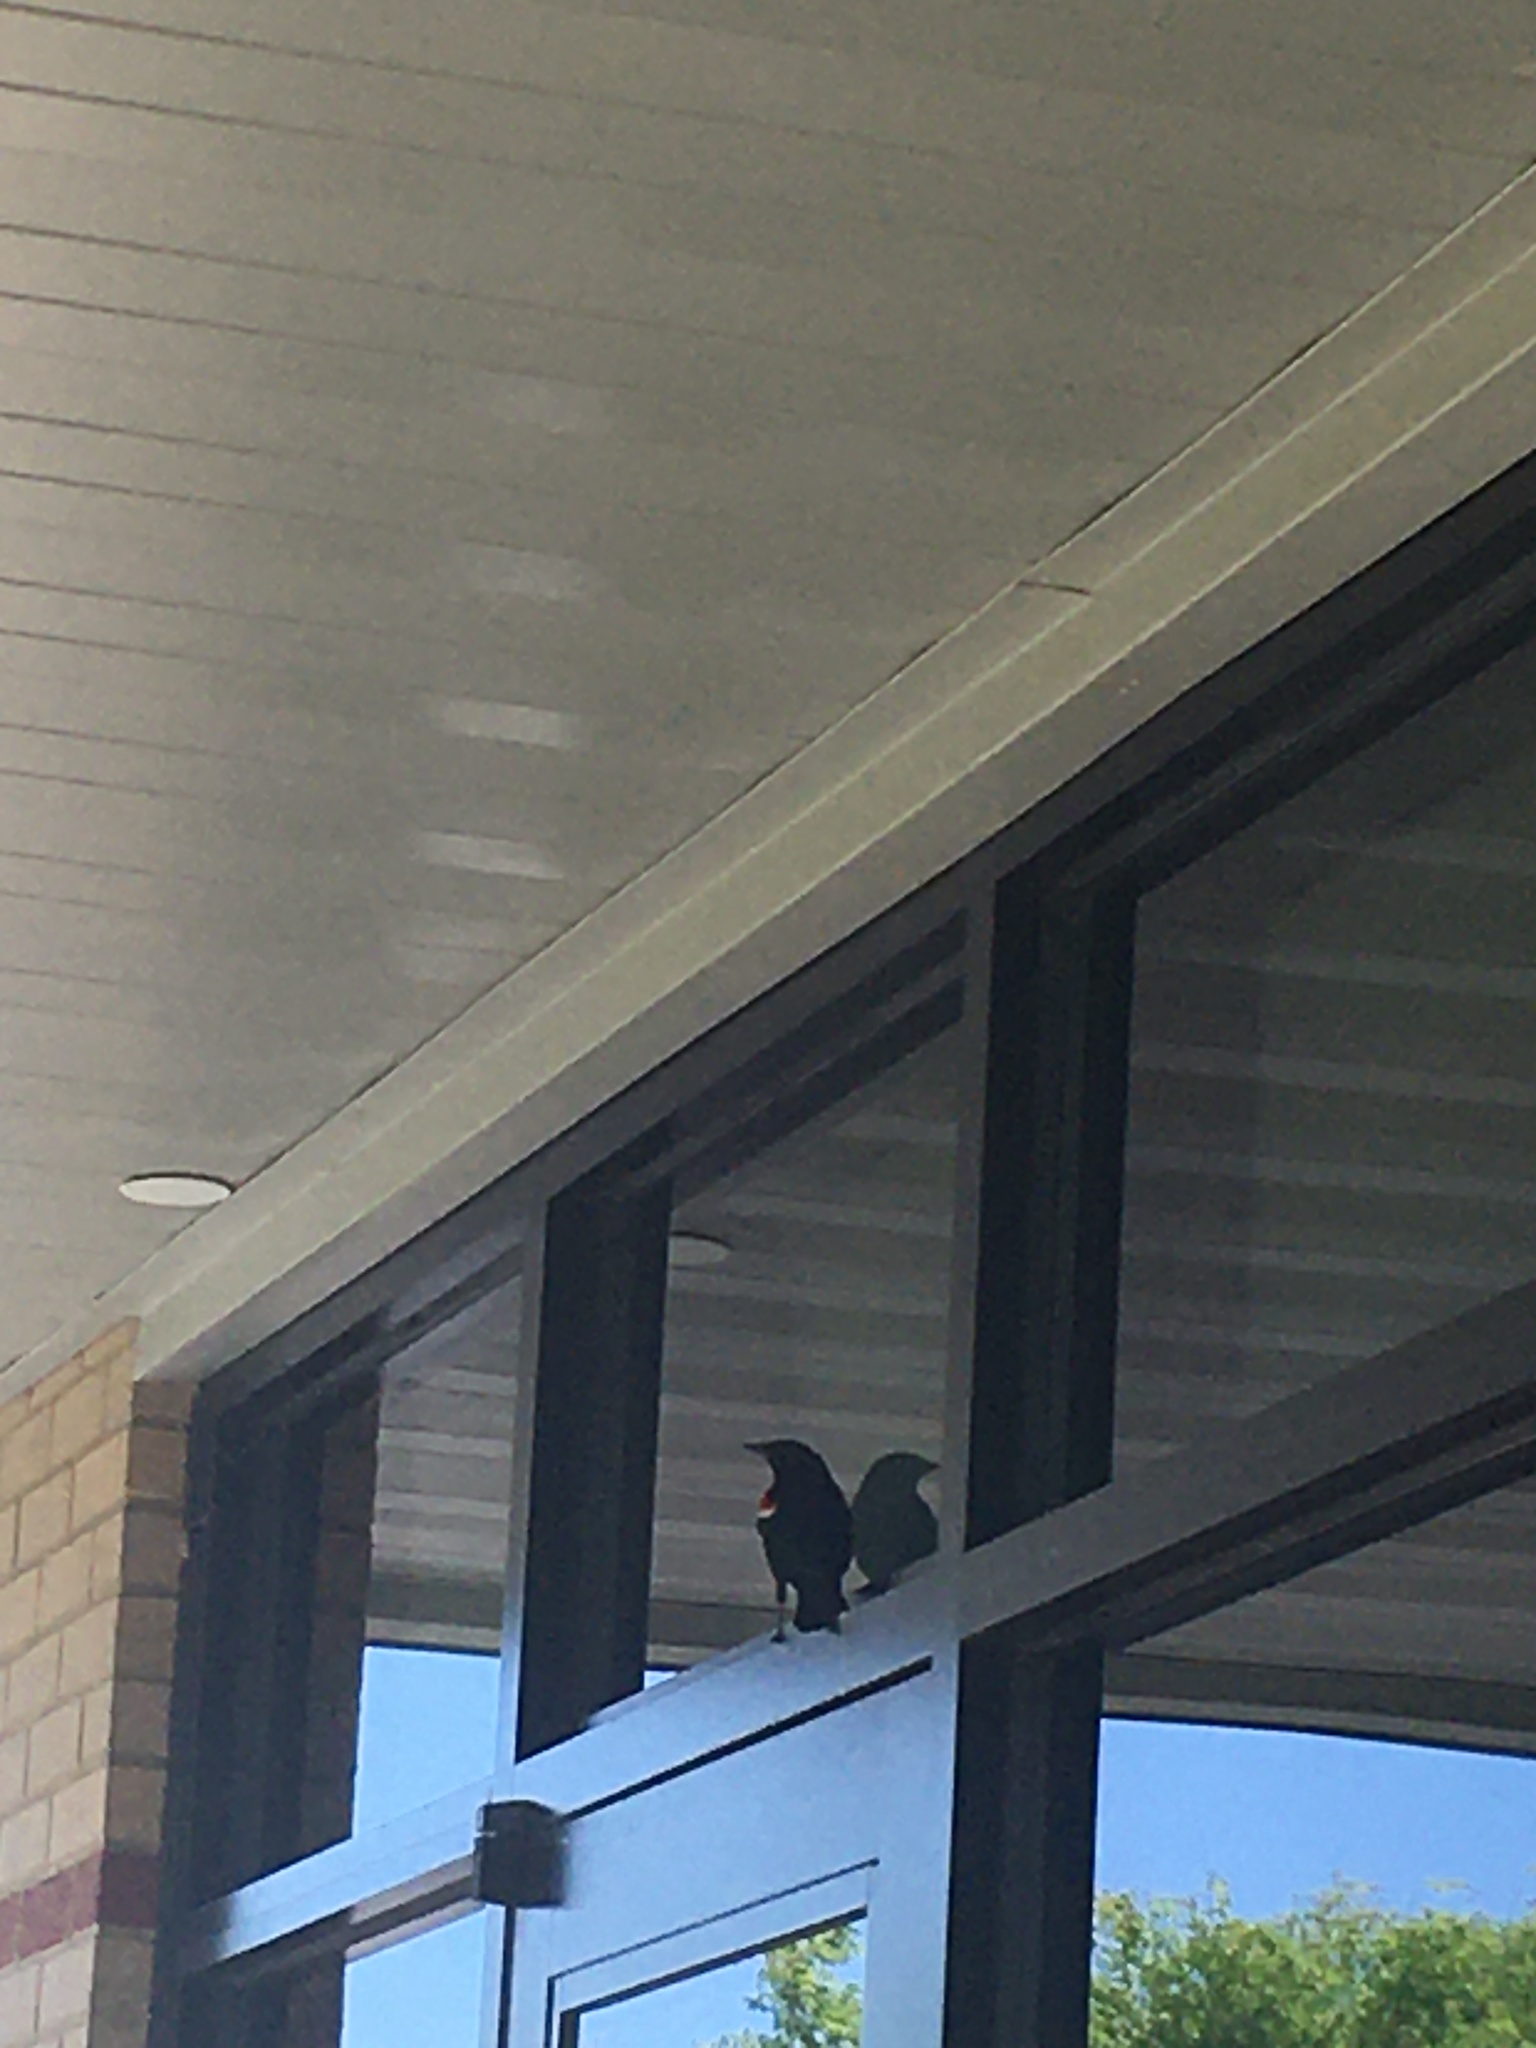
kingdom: Animalia
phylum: Chordata
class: Aves
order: Passeriformes
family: Icteridae
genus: Agelaius
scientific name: Agelaius phoeniceus
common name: Red-winged blackbird
